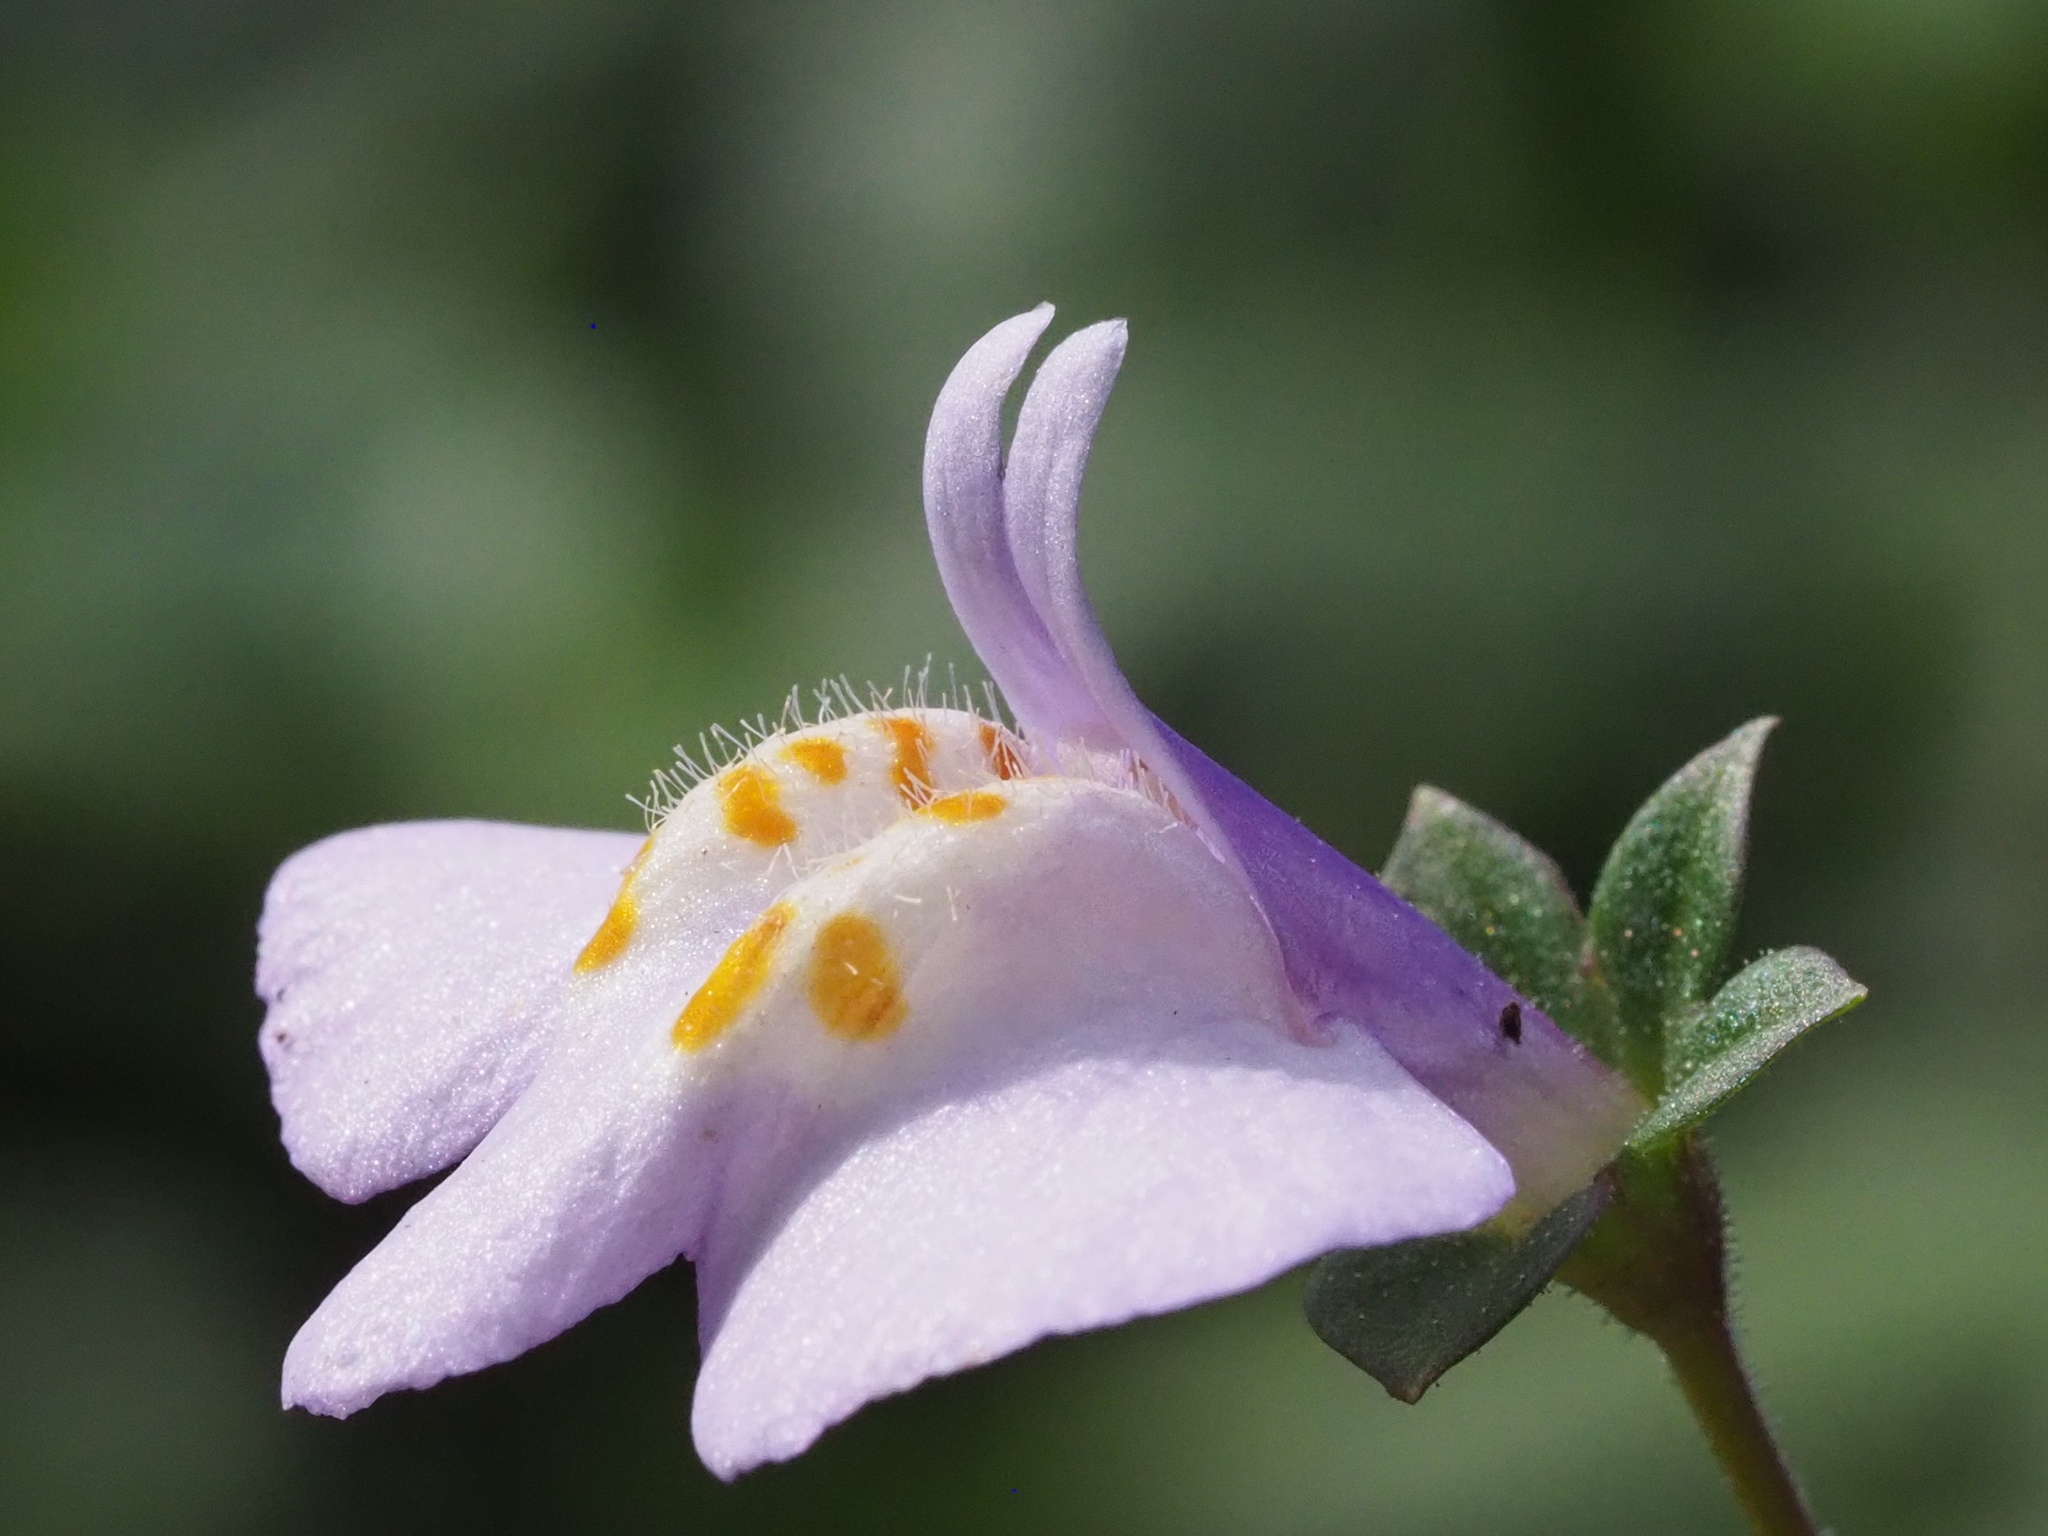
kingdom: Plantae
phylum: Tracheophyta
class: Magnoliopsida
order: Lamiales
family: Mazaceae
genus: Mazus
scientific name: Mazus fauriei
